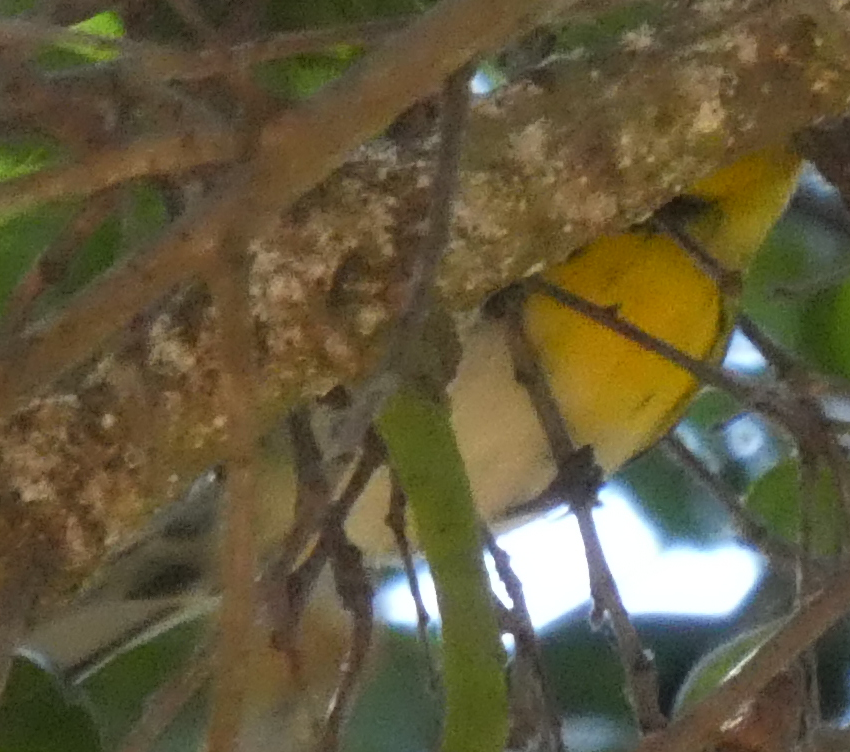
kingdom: Animalia
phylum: Chordata
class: Aves
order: Passeriformes
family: Parulidae
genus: Setophaga
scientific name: Setophaga townsendi
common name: Townsend's warbler
